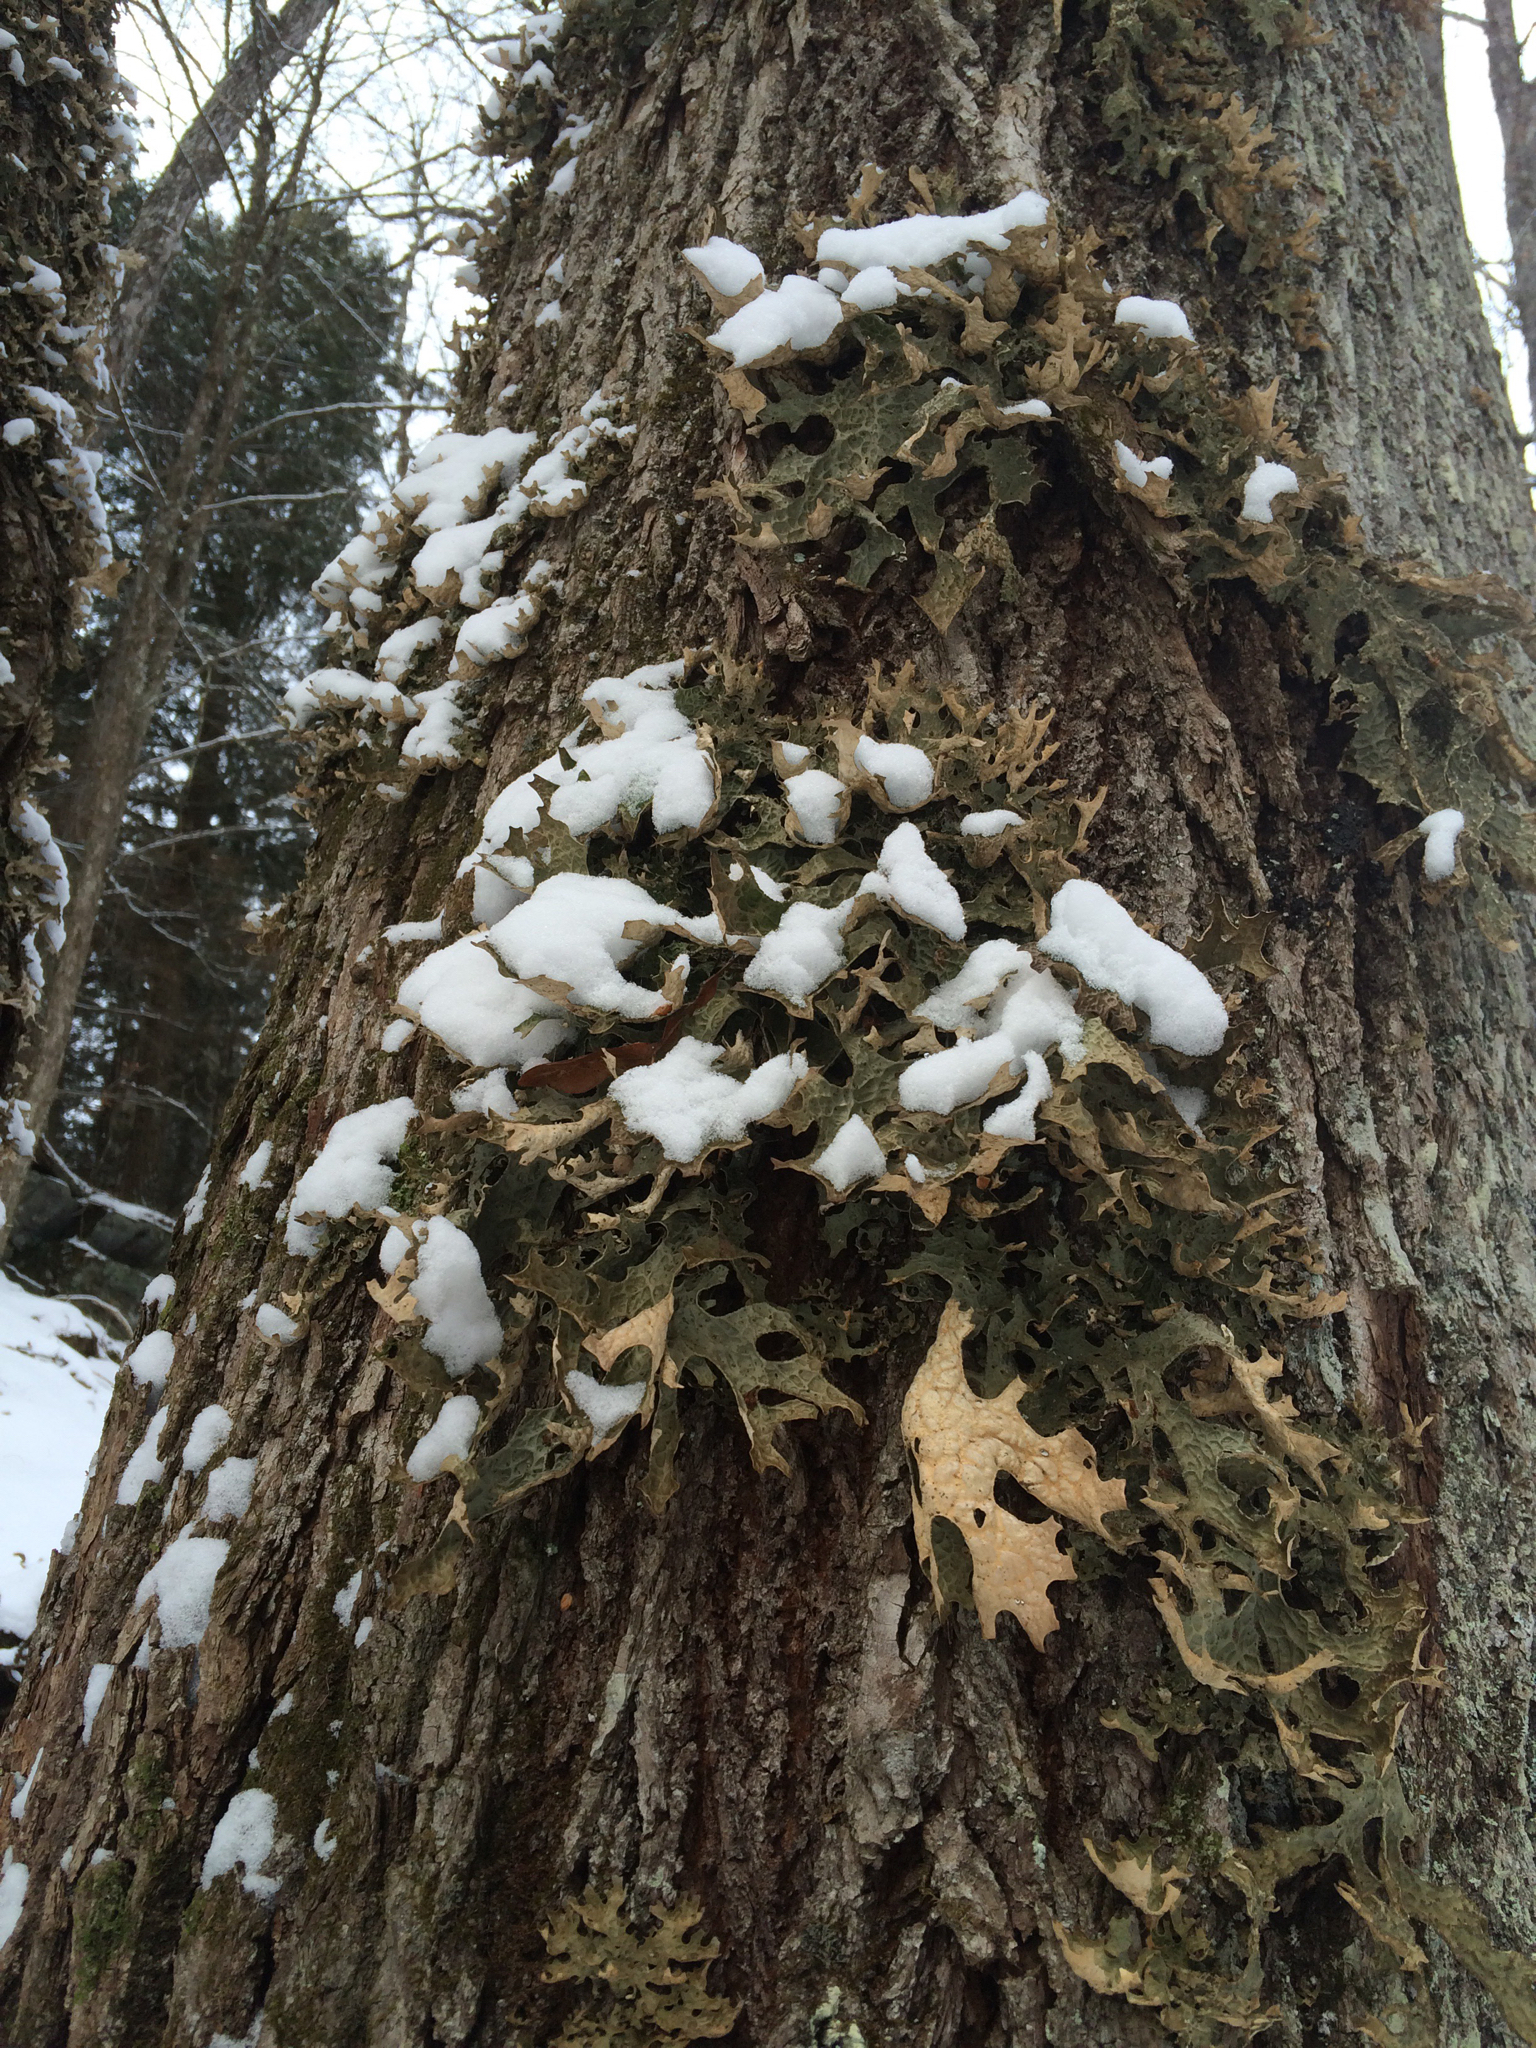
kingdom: Fungi
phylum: Ascomycota
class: Lecanoromycetes
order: Peltigerales
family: Lobariaceae
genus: Lobaria
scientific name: Lobaria pulmonaria
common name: Lungwort
